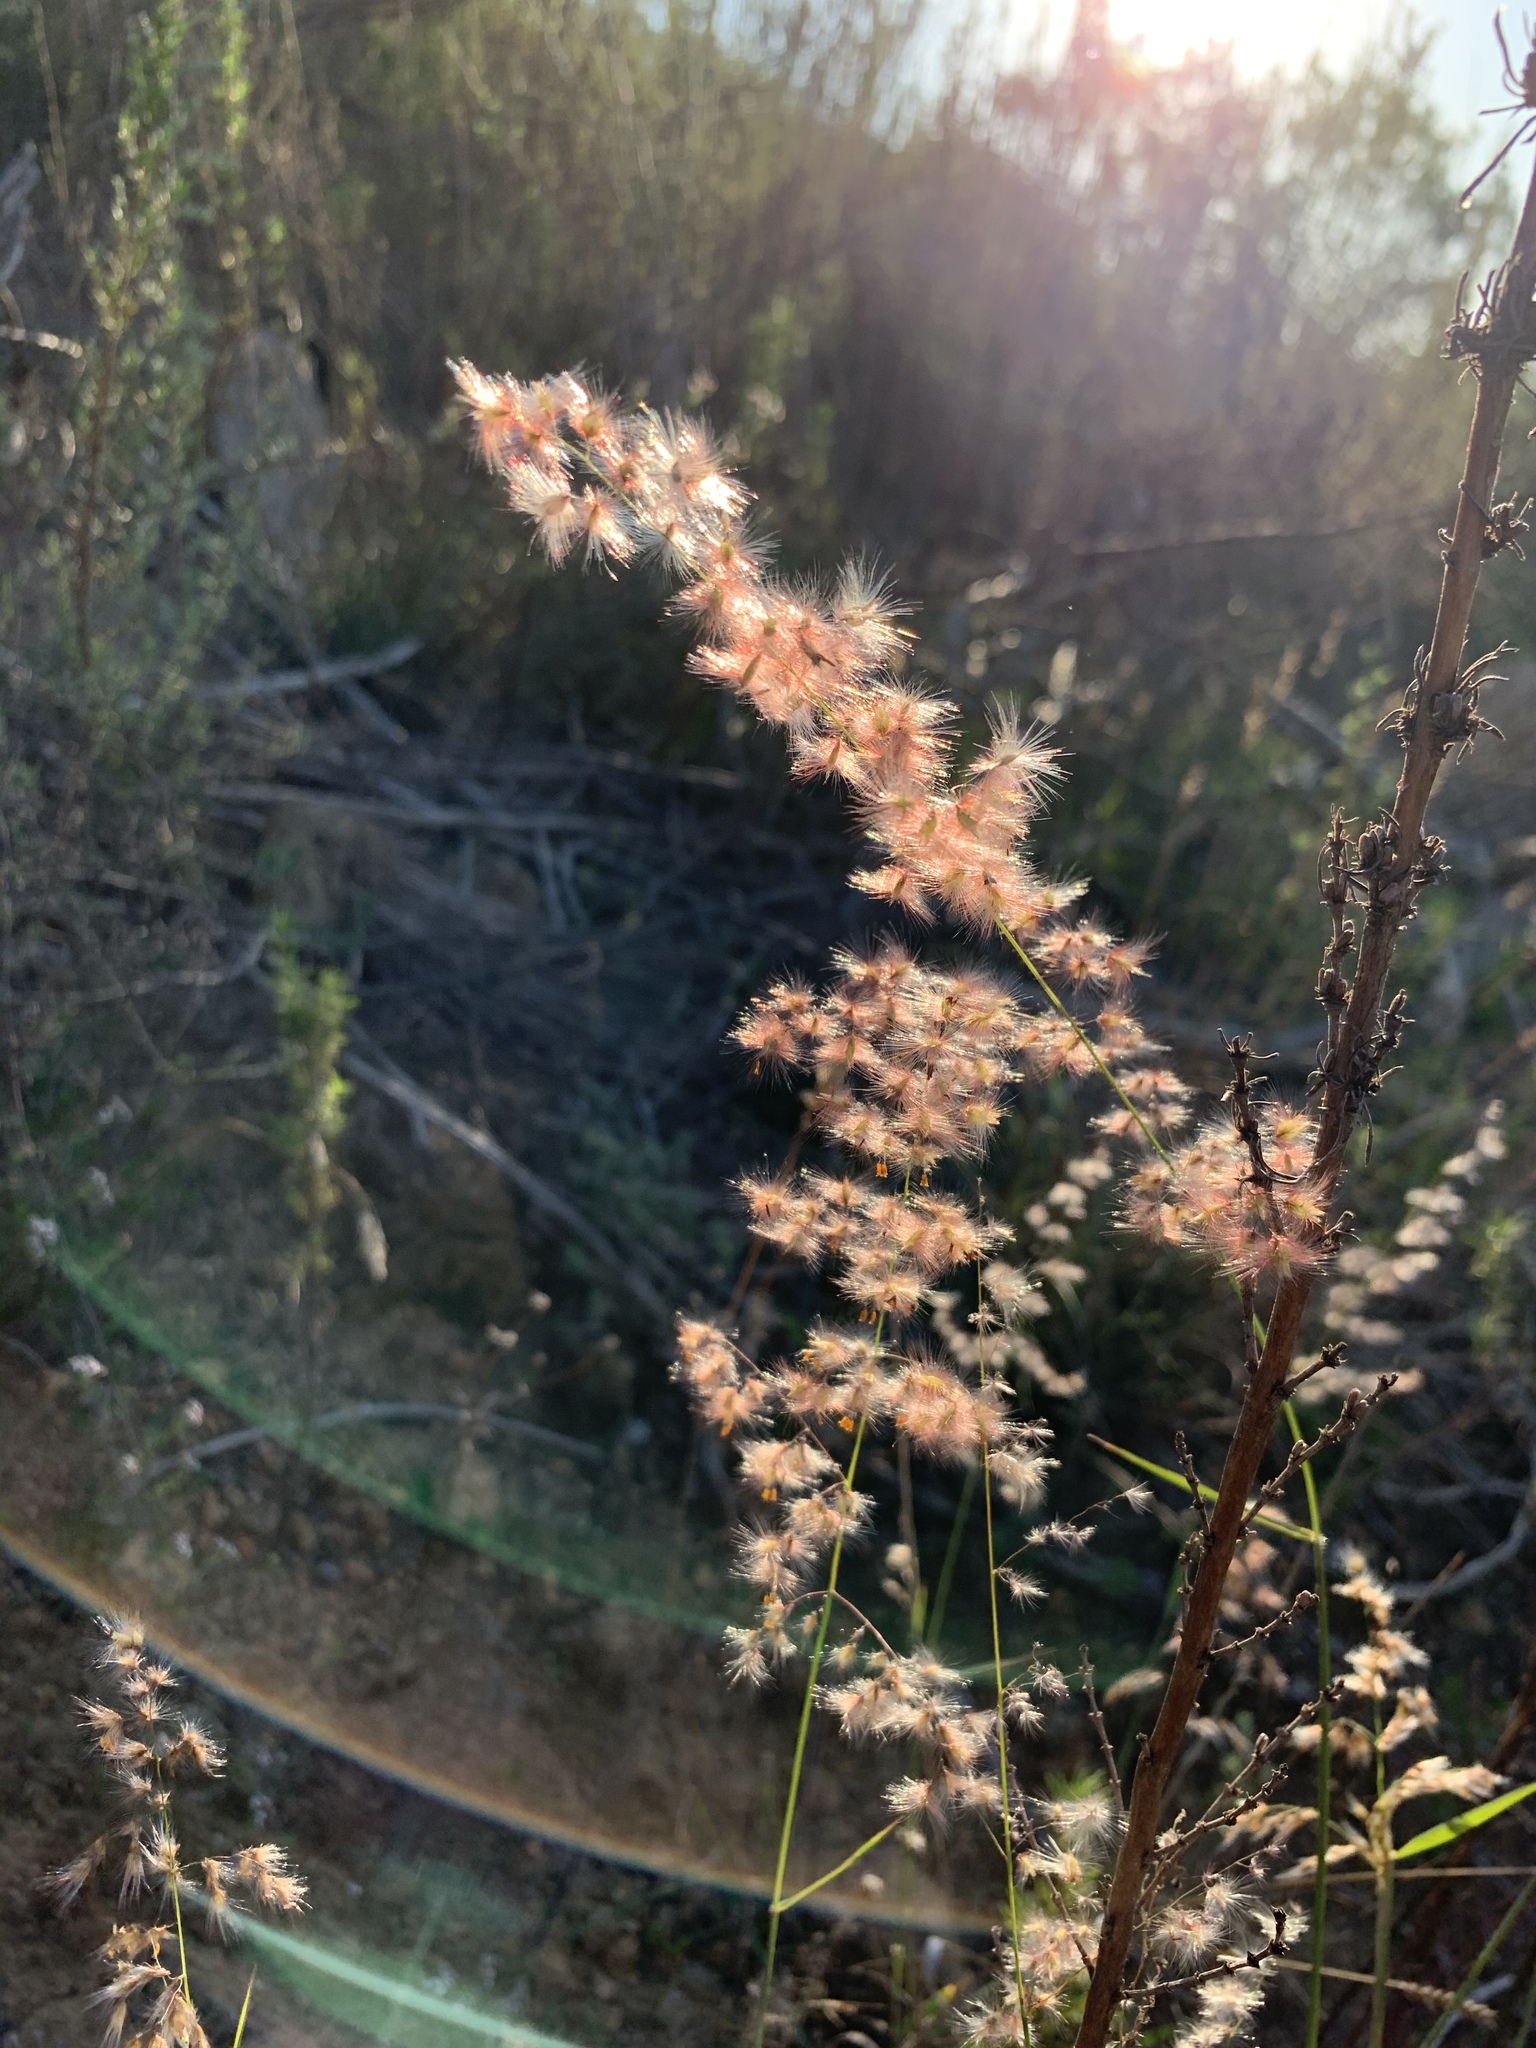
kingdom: Plantae
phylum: Tracheophyta
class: Liliopsida
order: Poales
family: Poaceae
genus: Melinis
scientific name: Melinis repens
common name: Rose natal grass
